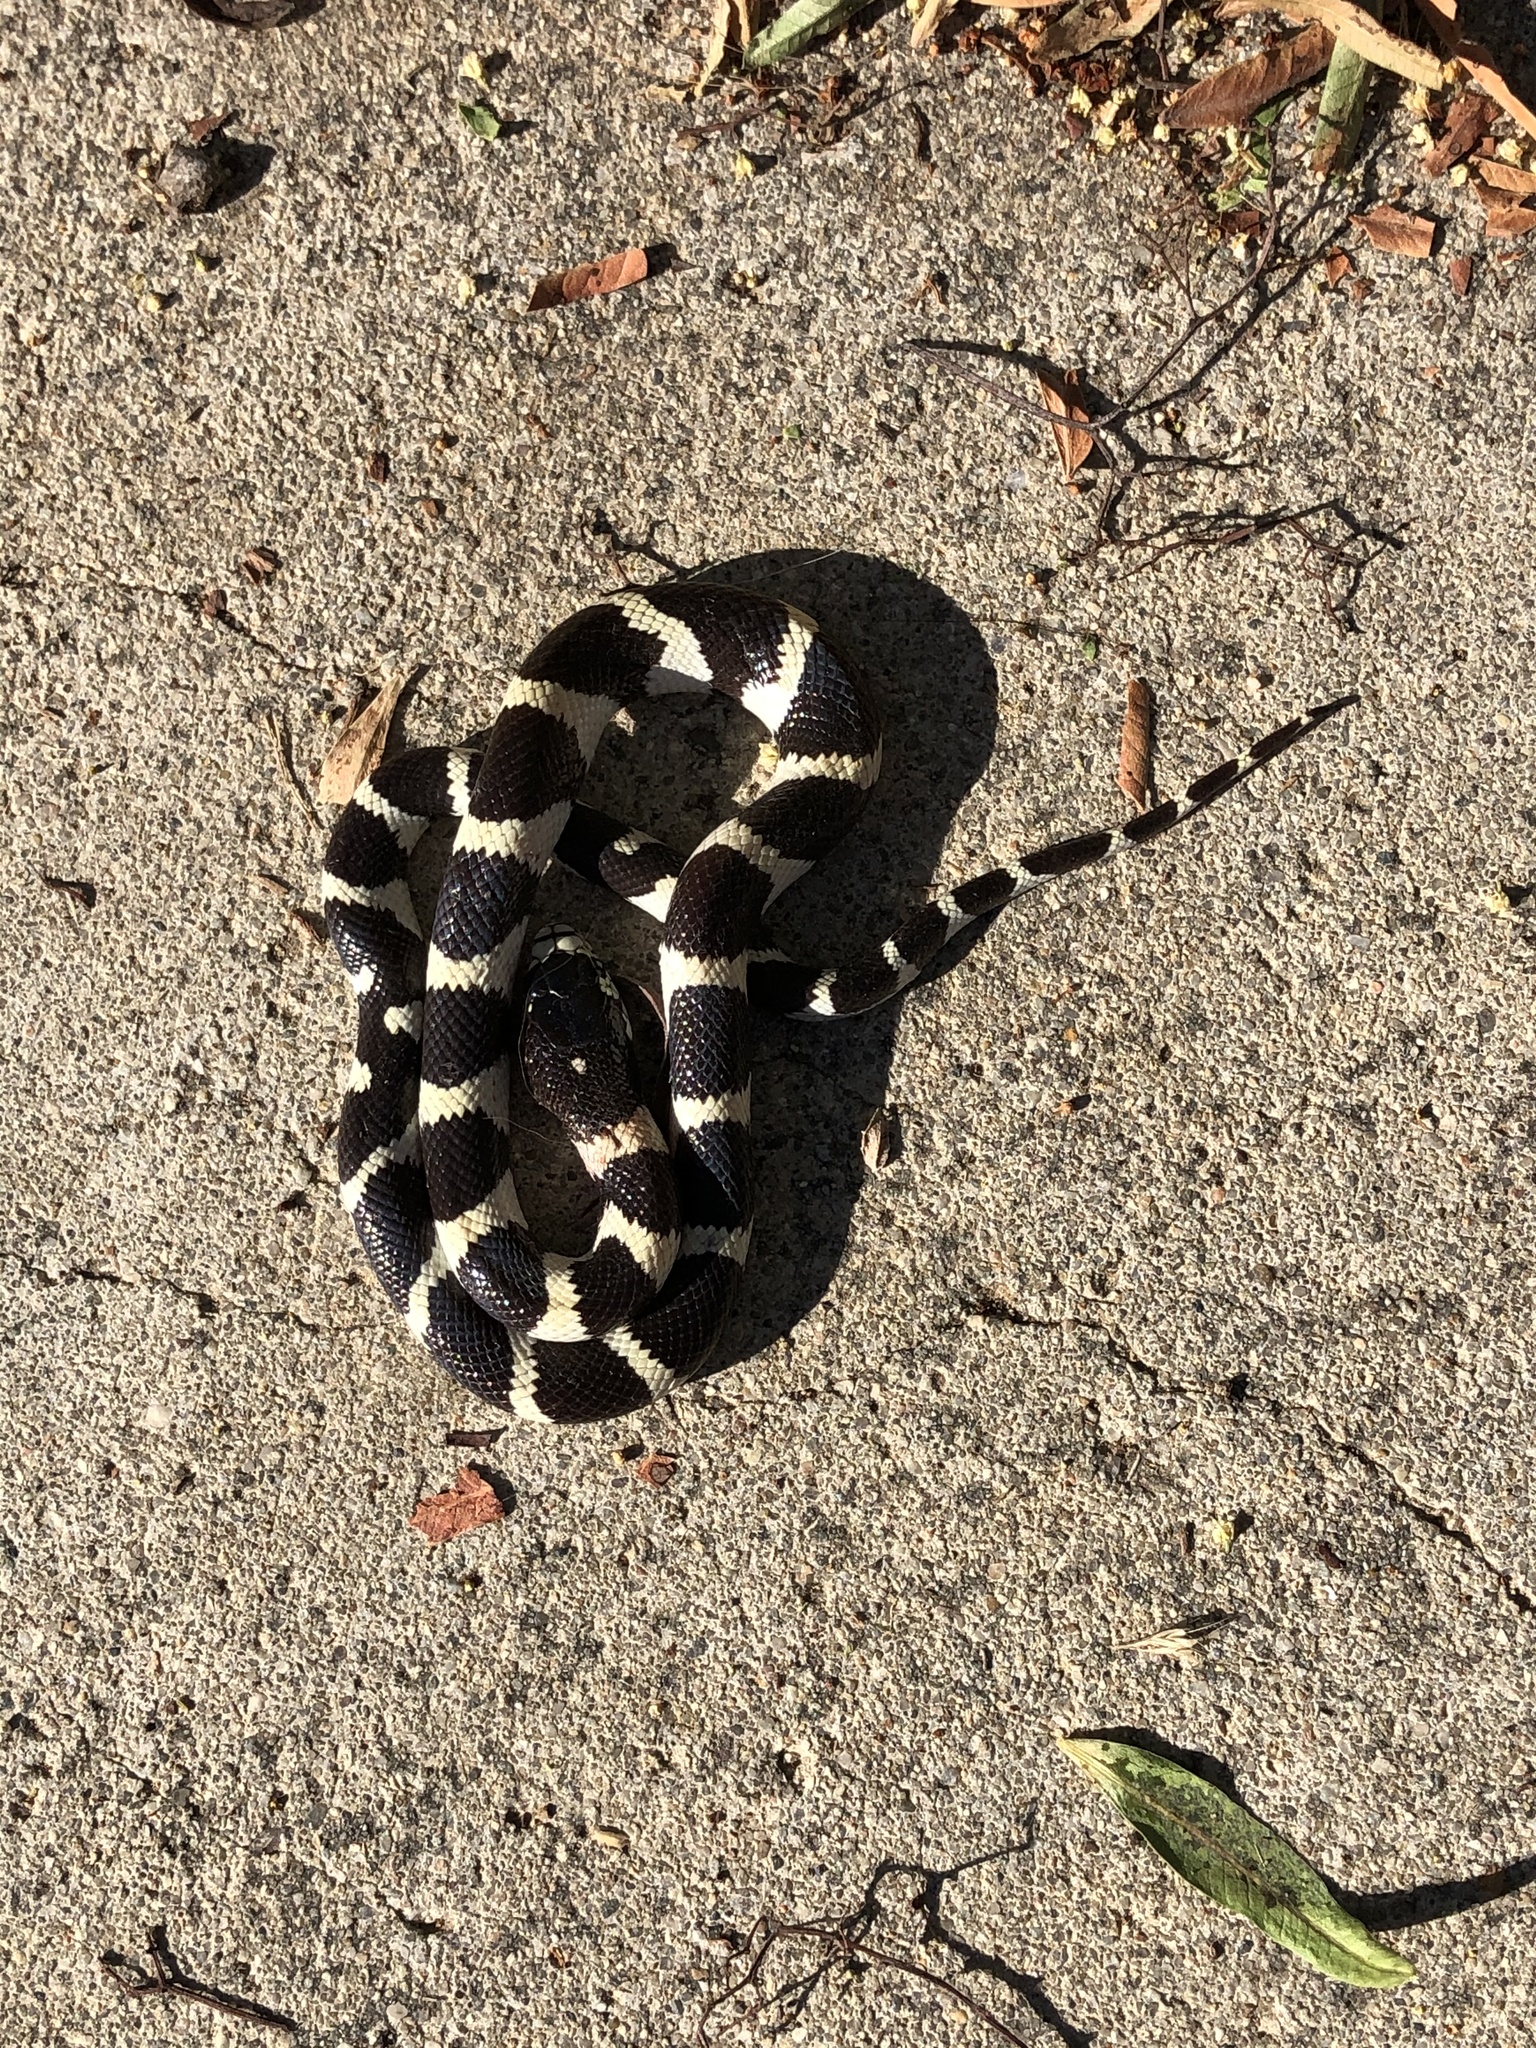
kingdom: Animalia
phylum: Chordata
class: Squamata
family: Colubridae
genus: Lampropeltis
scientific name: Lampropeltis californiae
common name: California kingsnake
